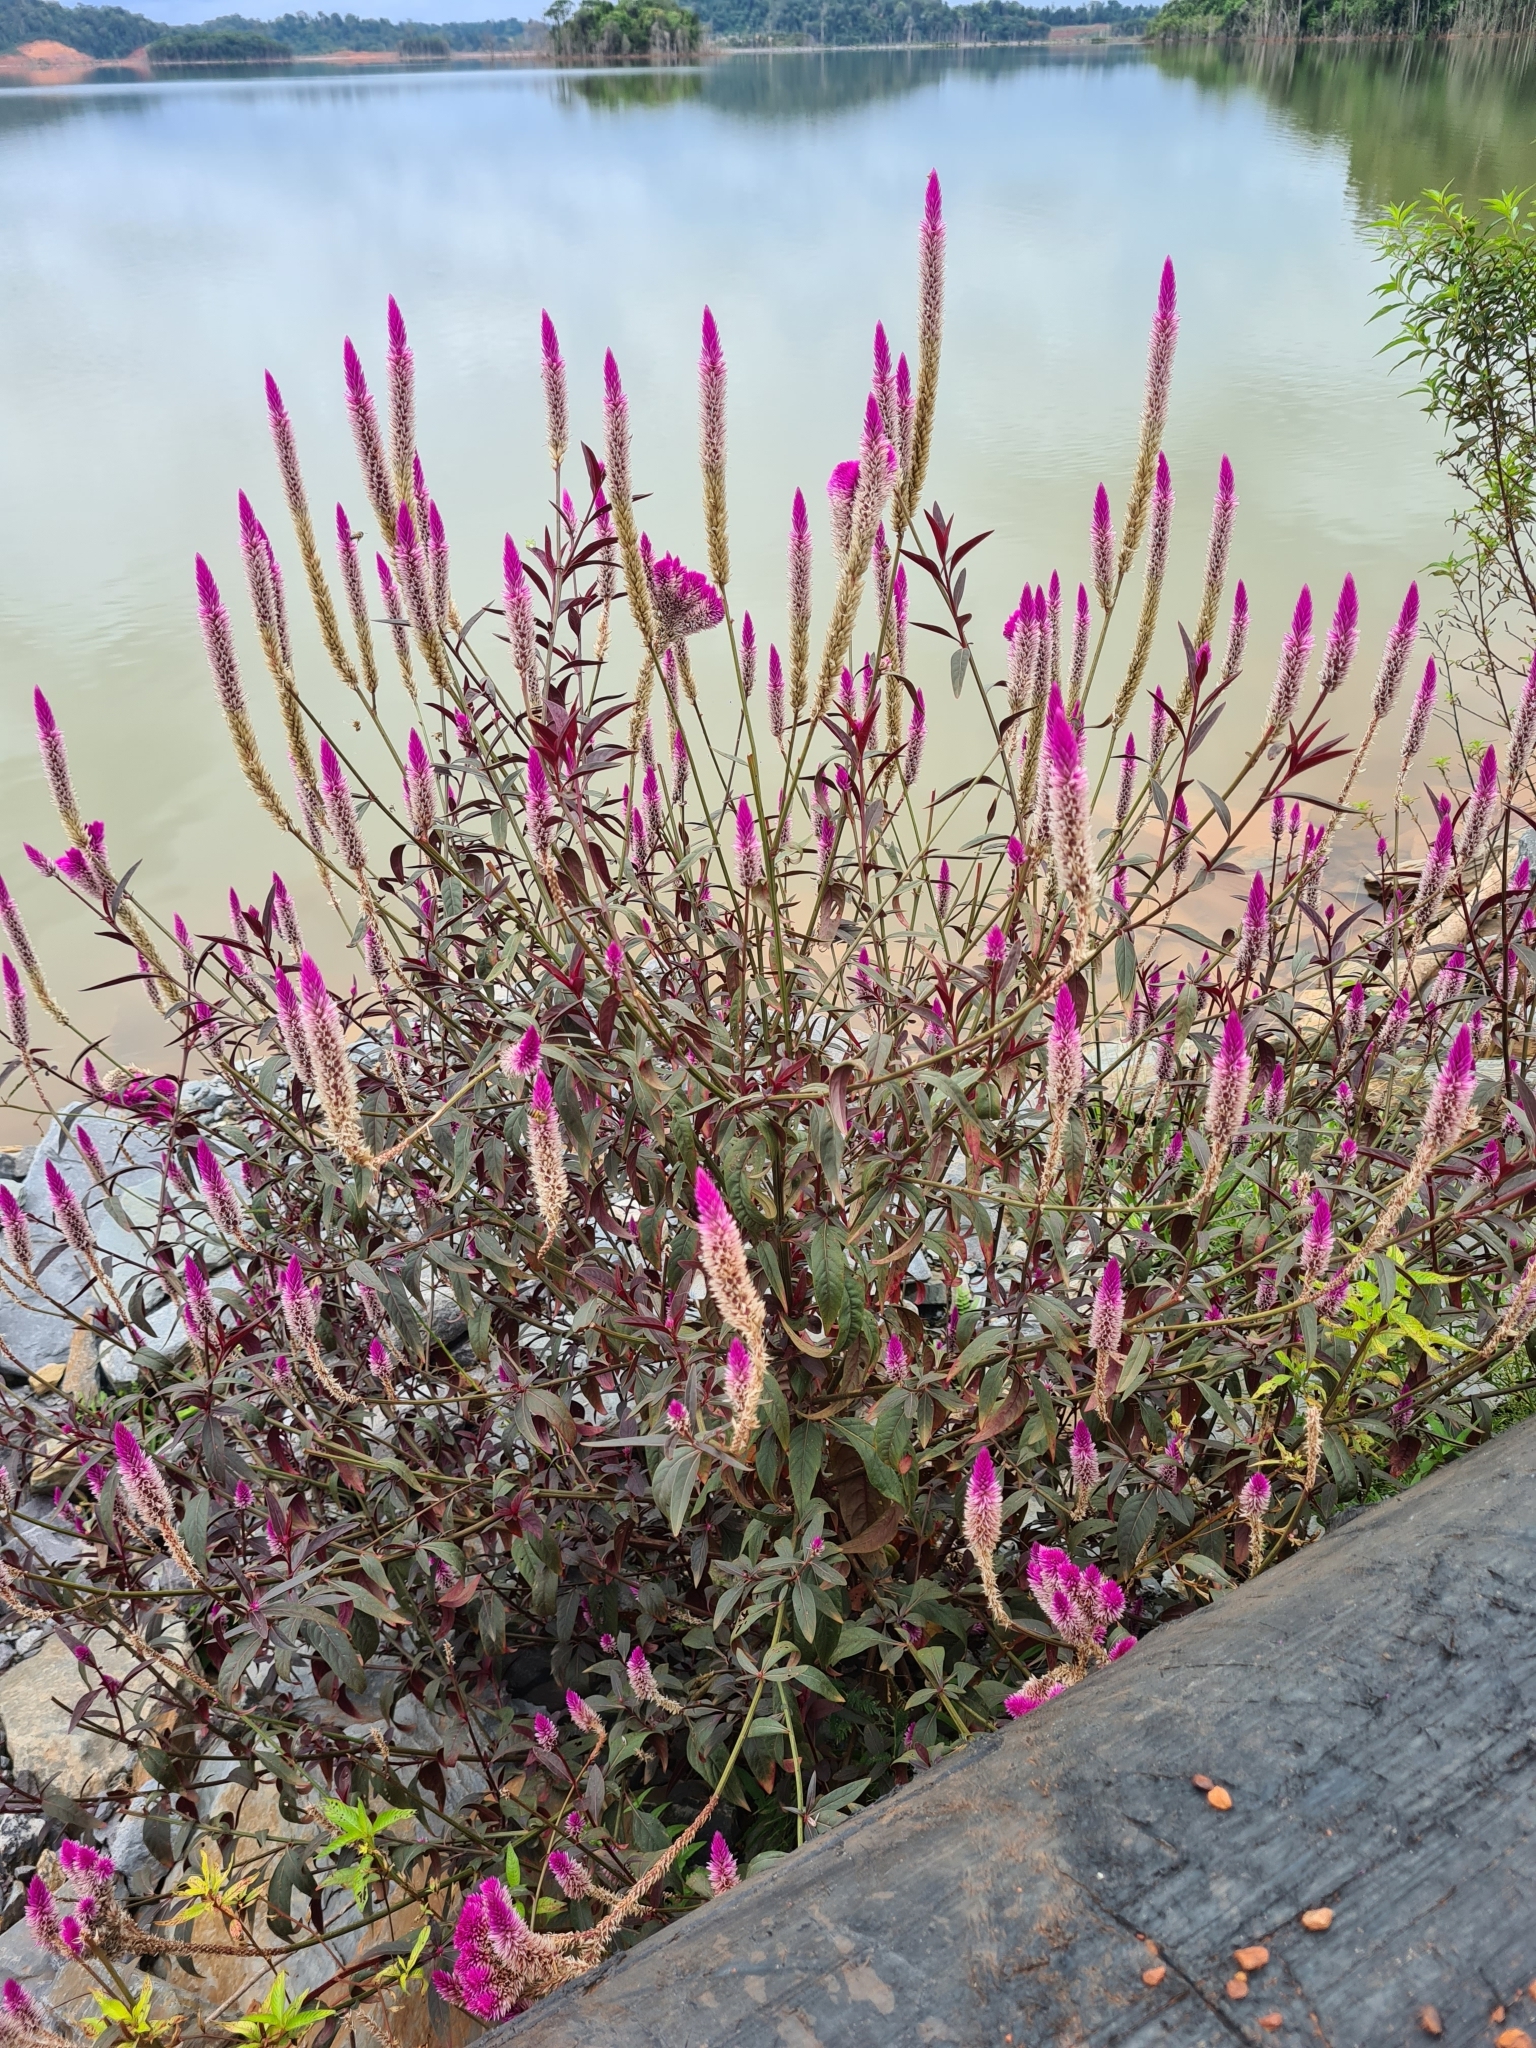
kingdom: Plantae
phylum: Tracheophyta
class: Magnoliopsida
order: Caryophyllales
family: Amaranthaceae
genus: Celosia
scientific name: Celosia argentea
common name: Feather cockscomb
